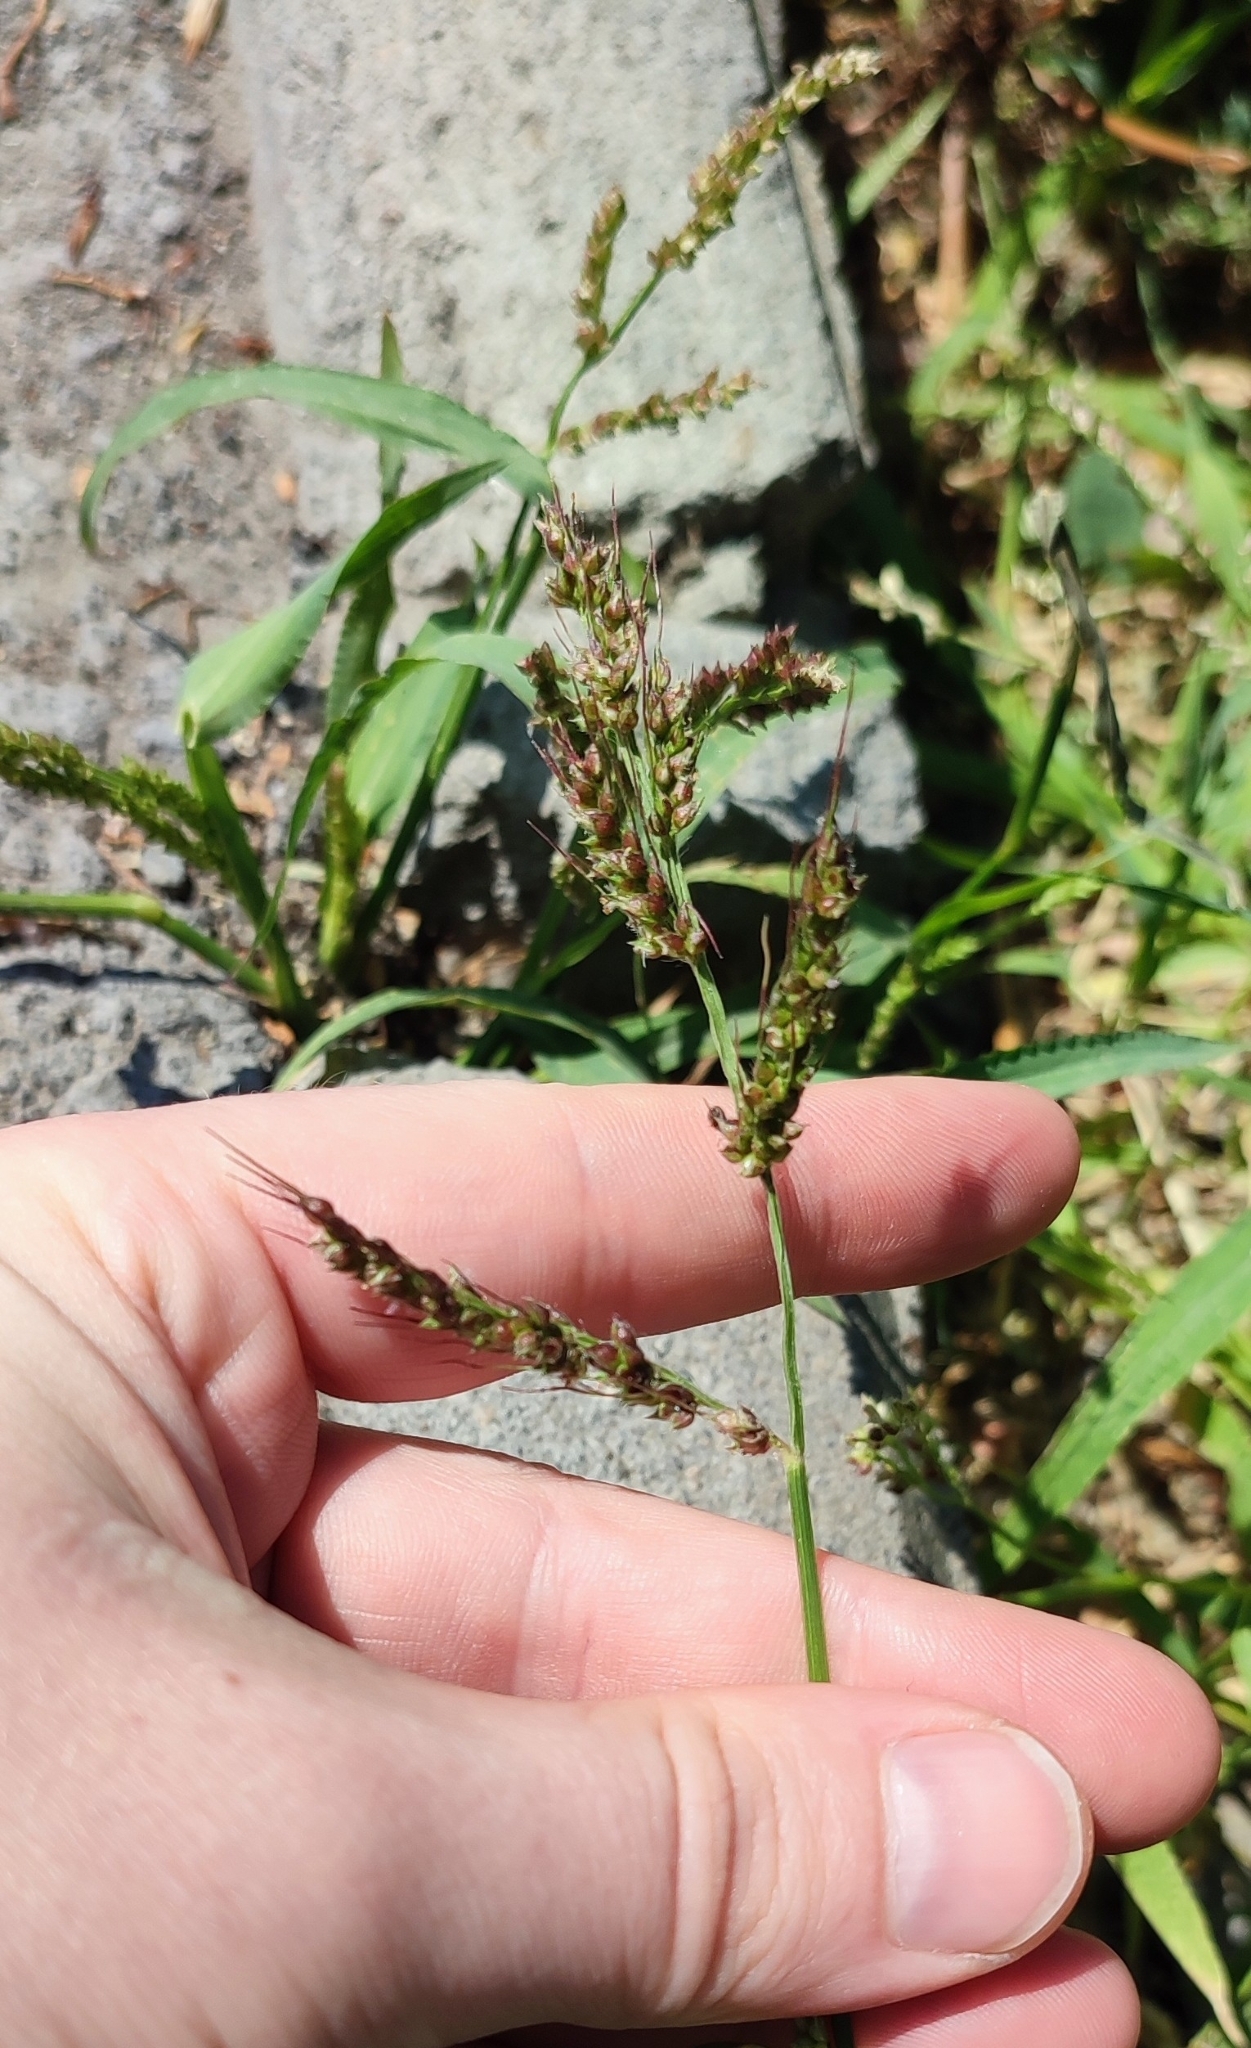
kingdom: Plantae
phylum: Tracheophyta
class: Liliopsida
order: Poales
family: Poaceae
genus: Echinochloa
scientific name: Echinochloa crus-galli
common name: Cockspur
